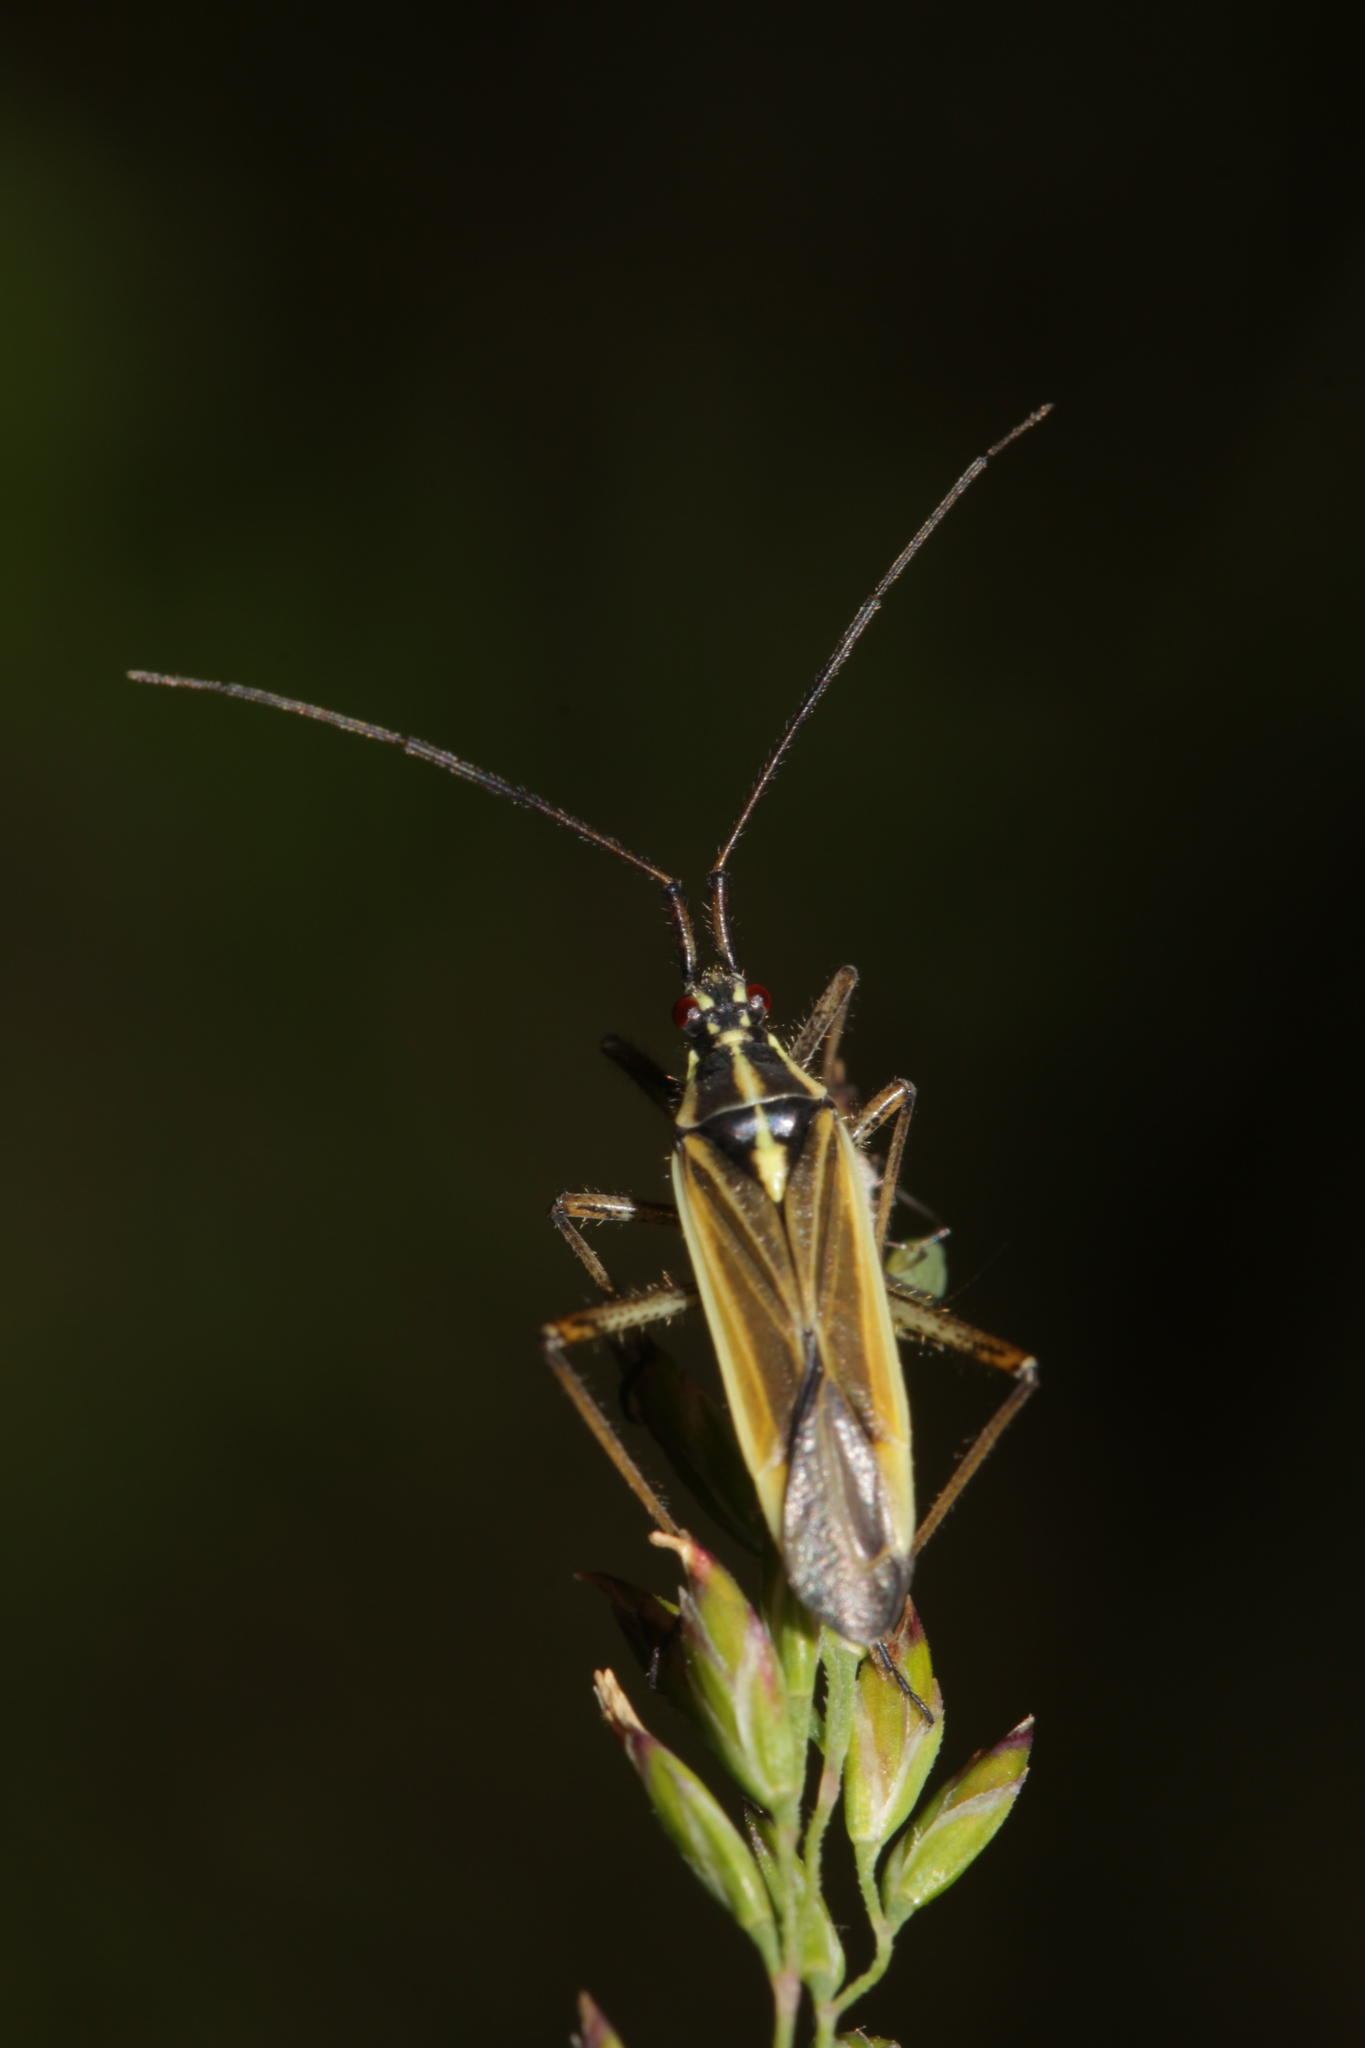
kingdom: Animalia
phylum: Arthropoda
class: Insecta
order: Hemiptera
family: Miridae
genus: Leptopterna
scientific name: Leptopterna dolabrata
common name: Meadow plant bug
